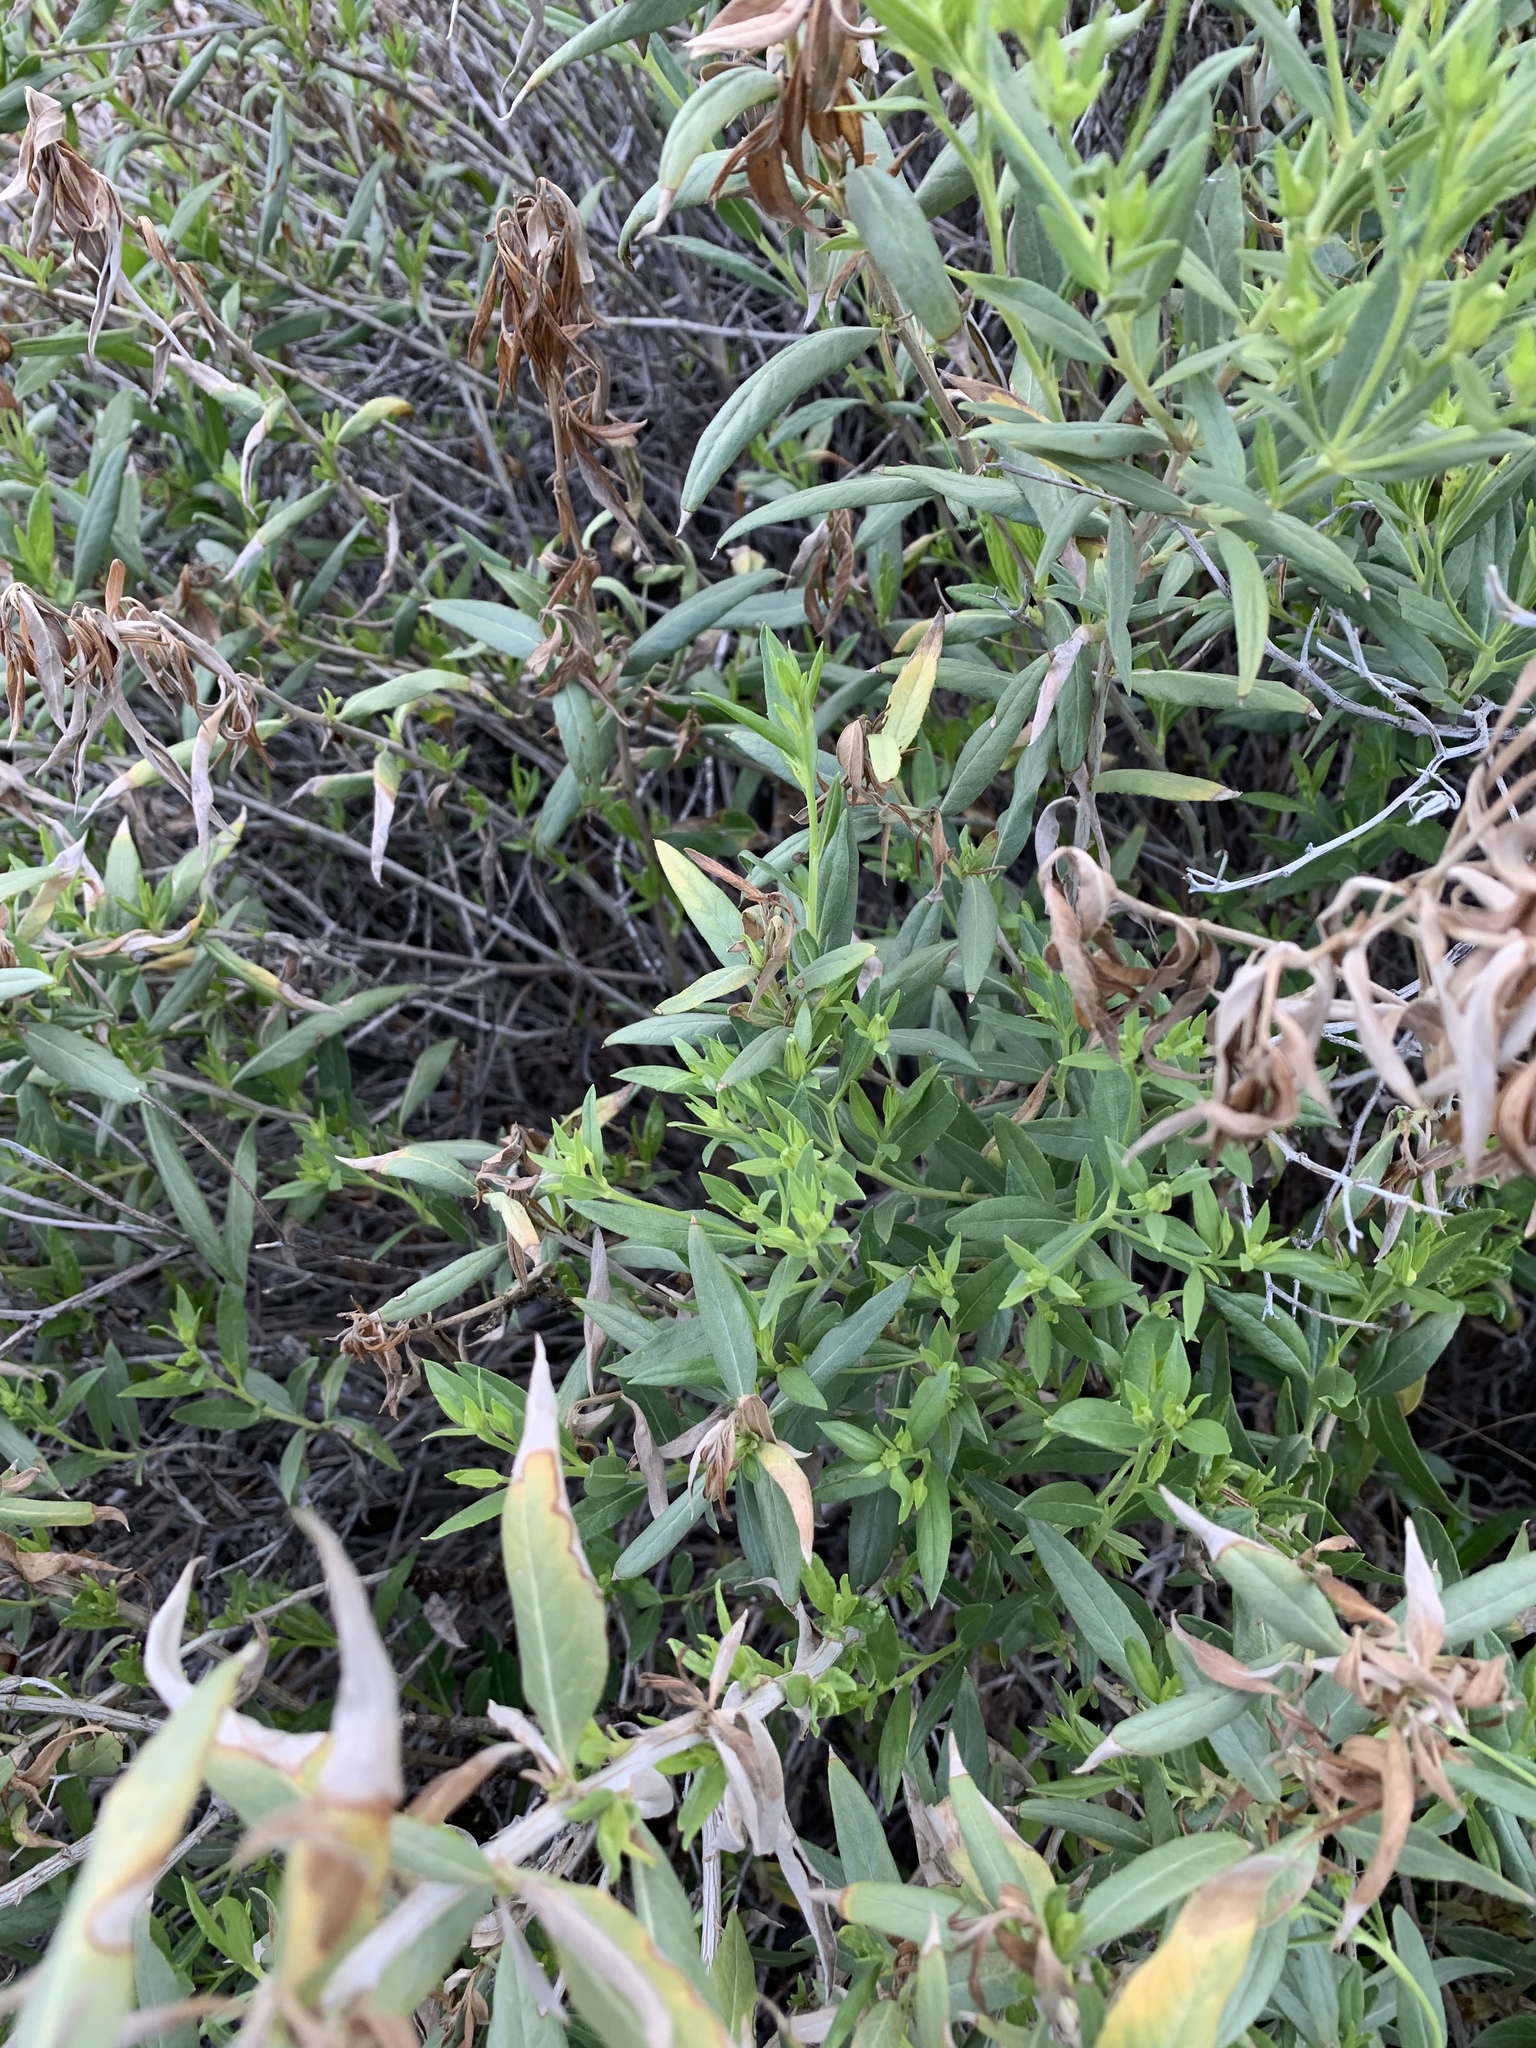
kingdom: Plantae
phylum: Tracheophyta
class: Magnoliopsida
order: Asterales
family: Asteraceae
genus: Trixis
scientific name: Trixis californica
